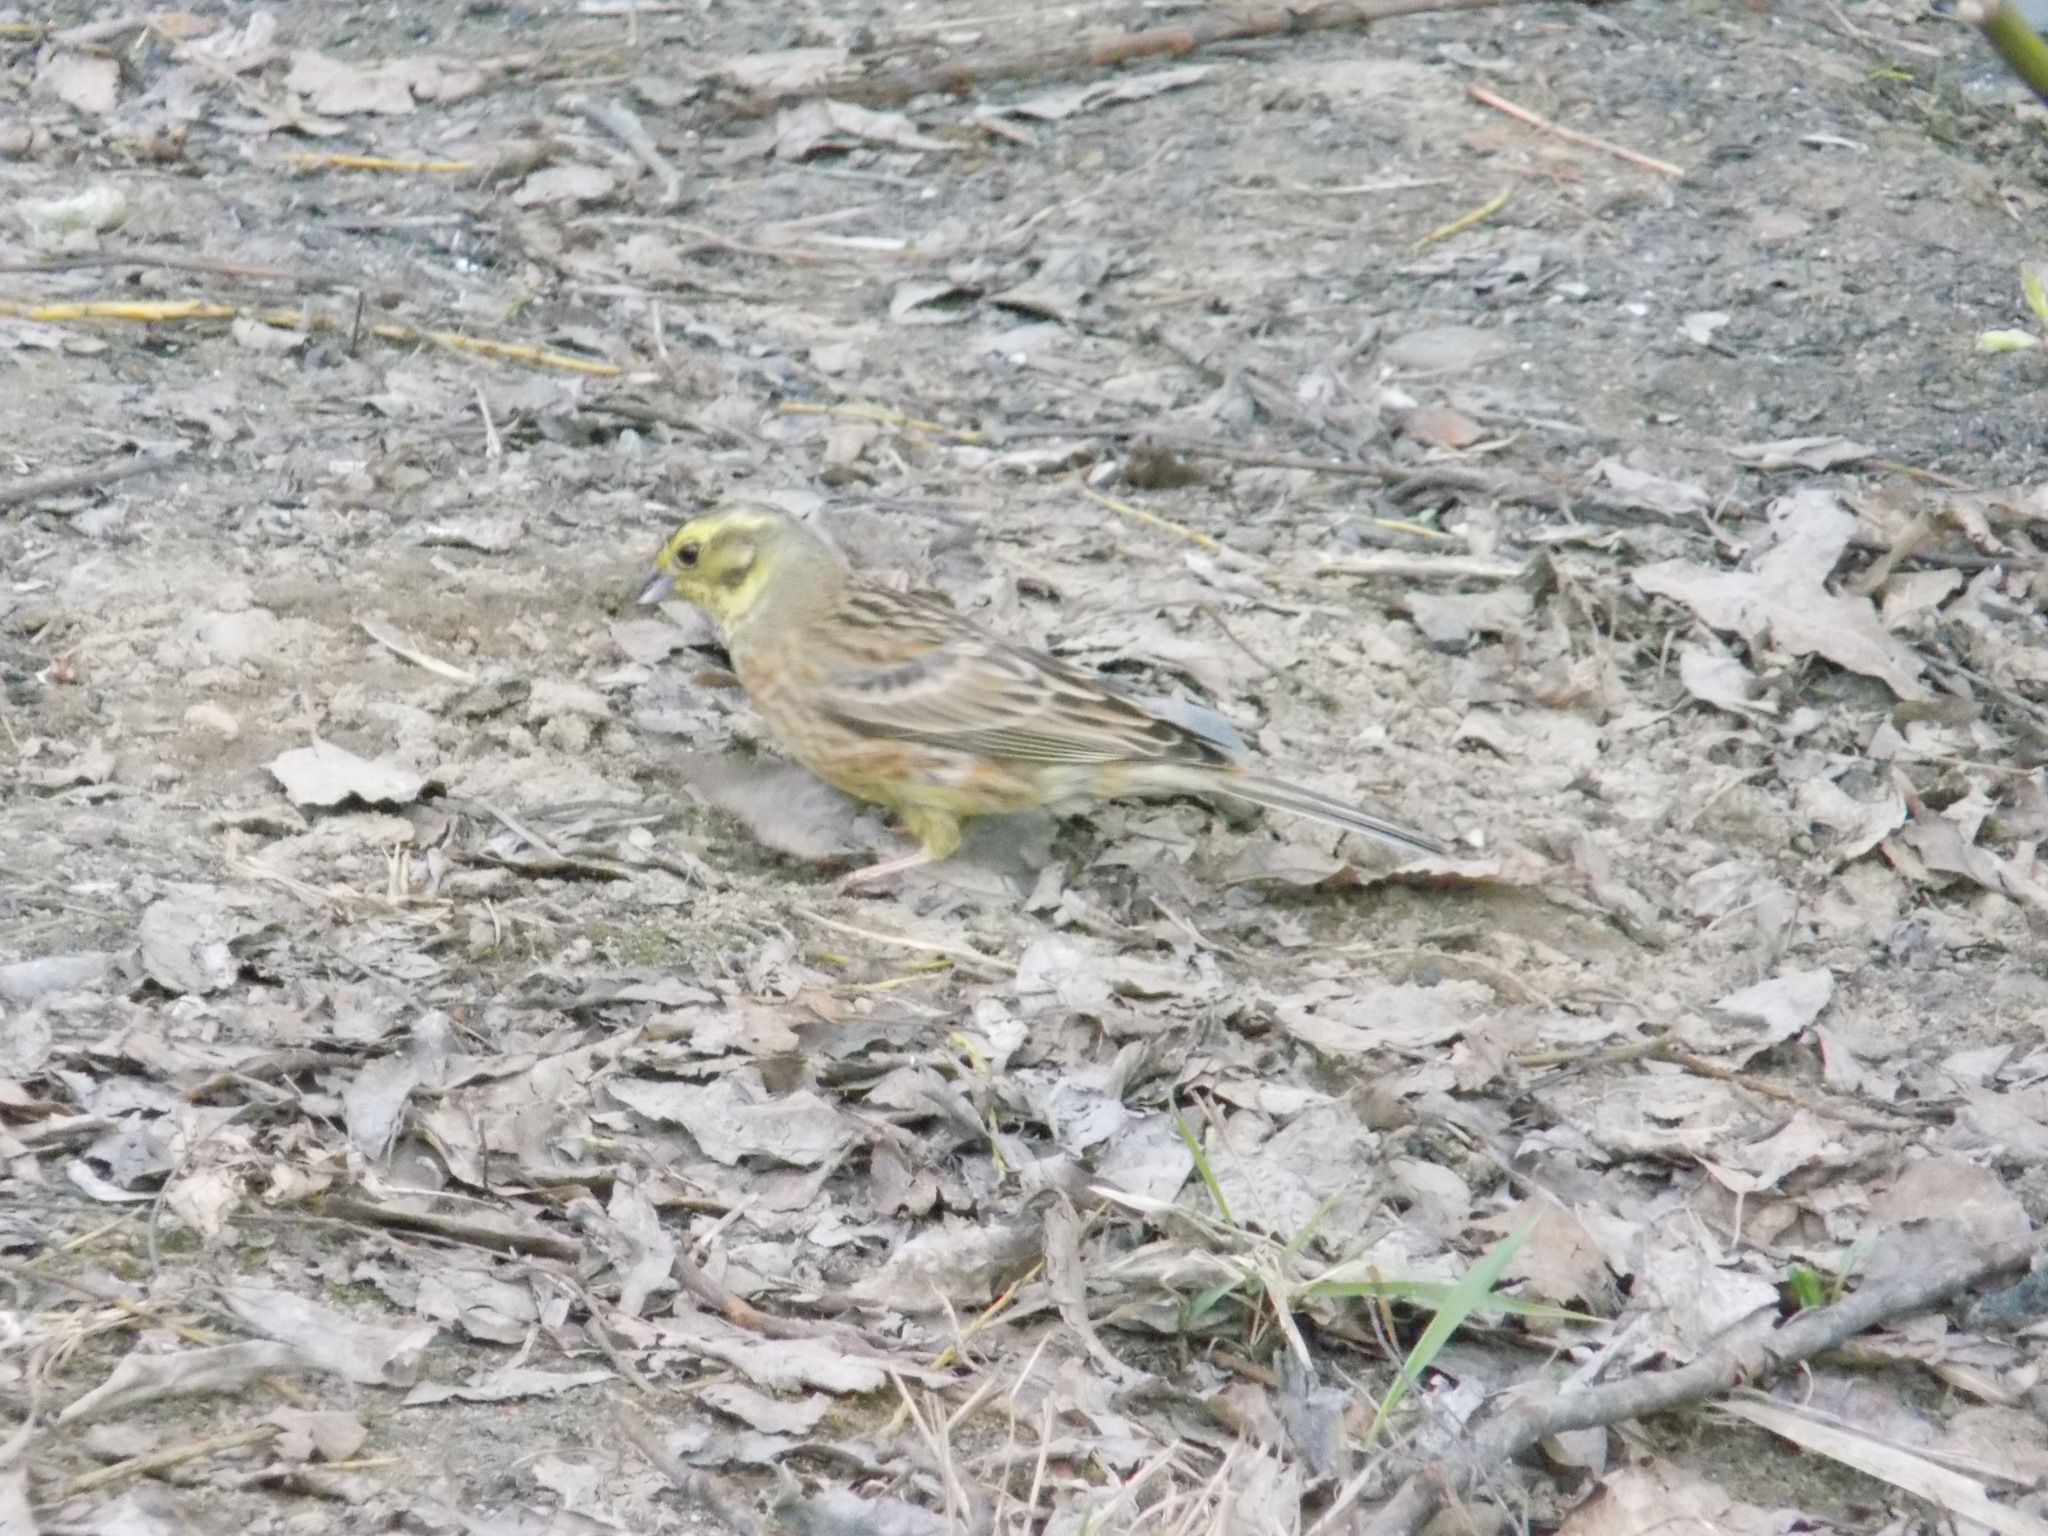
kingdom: Animalia
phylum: Chordata
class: Aves
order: Passeriformes
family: Emberizidae
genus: Emberiza
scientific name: Emberiza citrinella
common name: Yellowhammer
